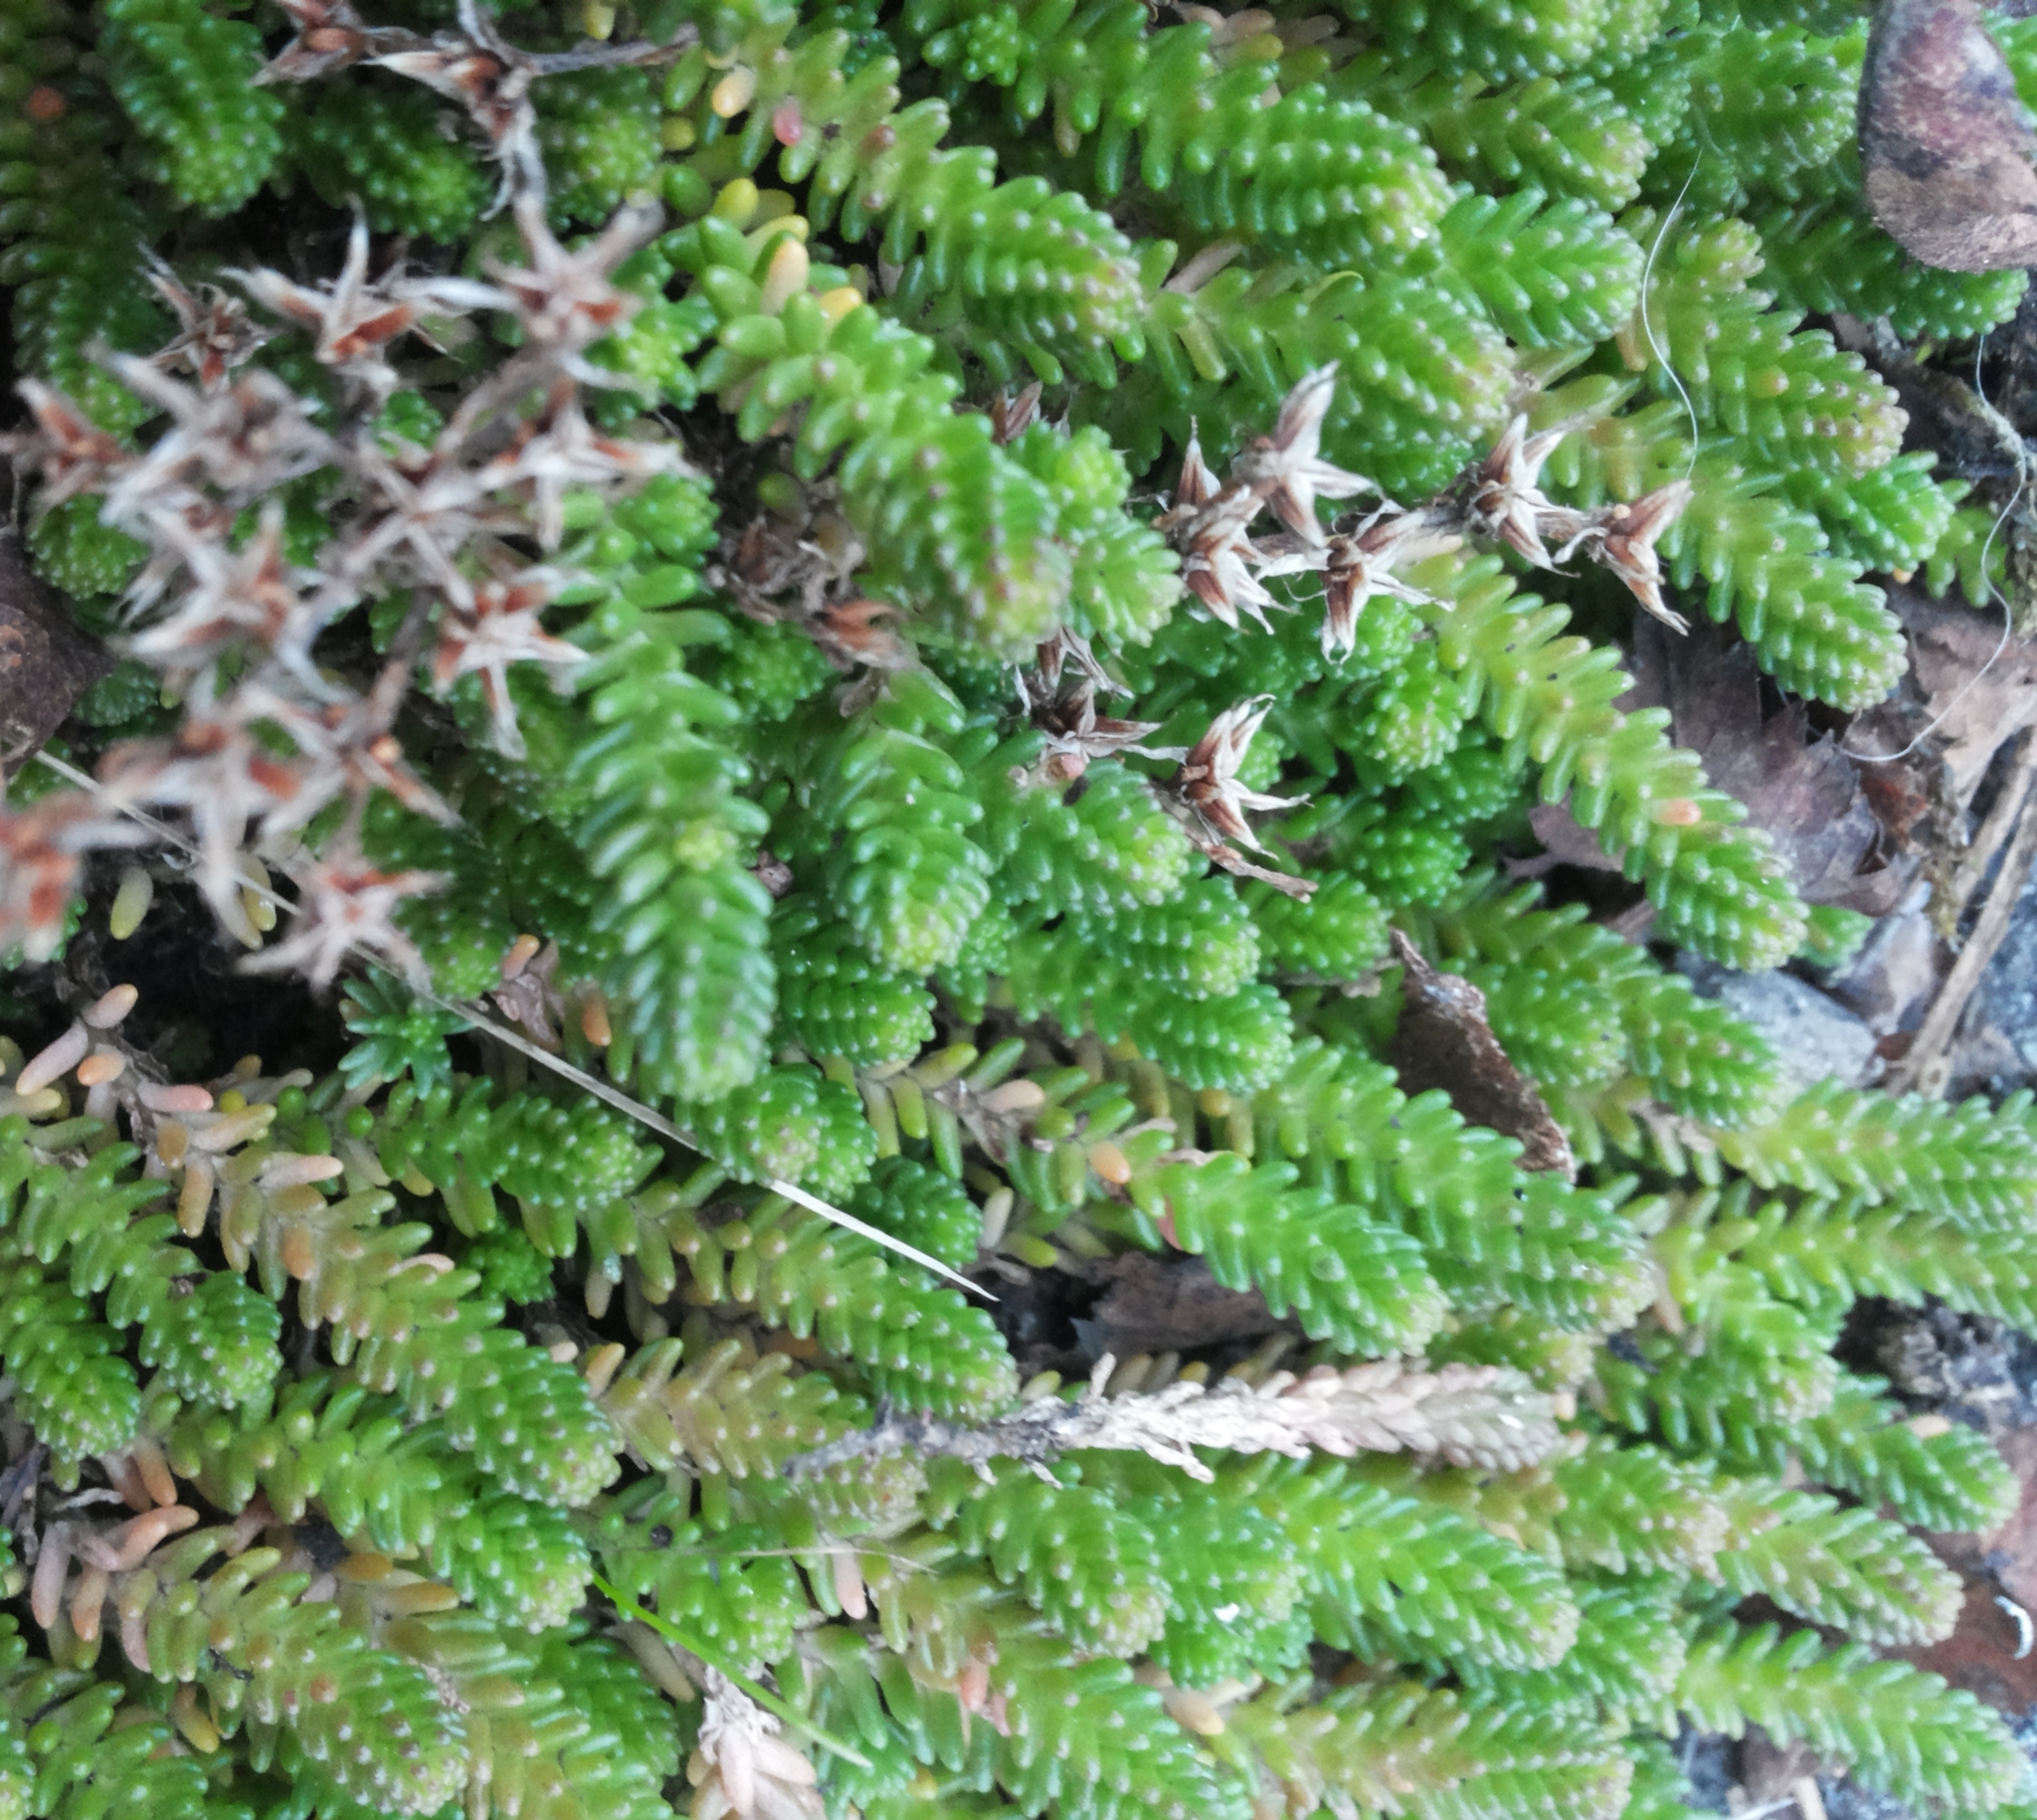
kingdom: Plantae
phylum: Tracheophyta
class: Magnoliopsida
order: Saxifragales
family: Crassulaceae
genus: Sedum
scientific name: Sedum sexangulare
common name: Tasteless stonecrop
